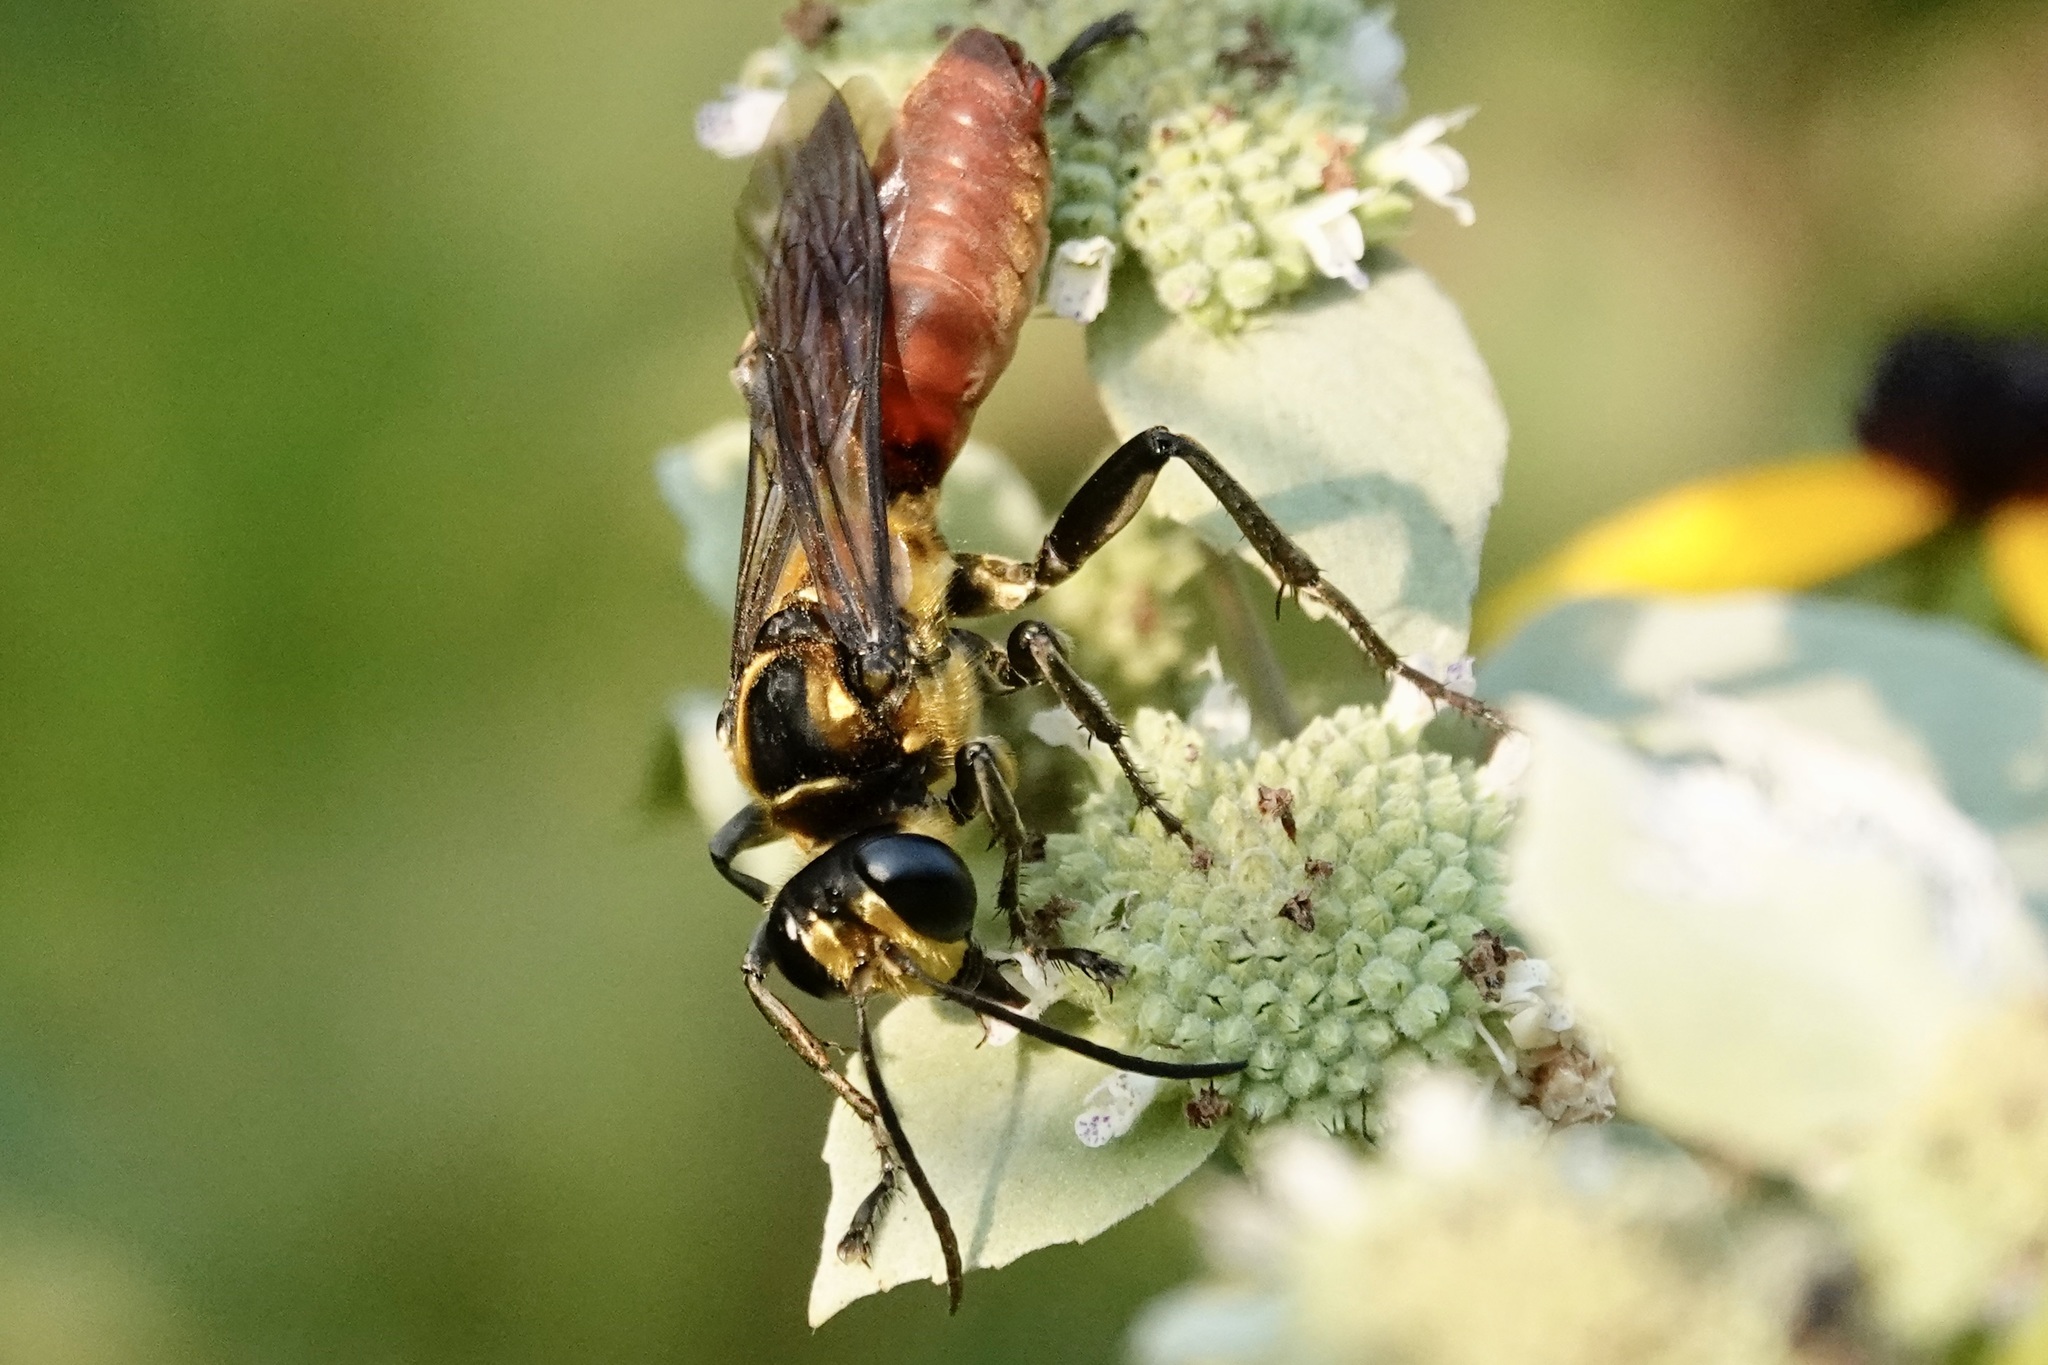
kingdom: Animalia
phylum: Arthropoda
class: Insecta
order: Hymenoptera
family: Sphecidae
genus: Sphex
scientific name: Sphex habenus
